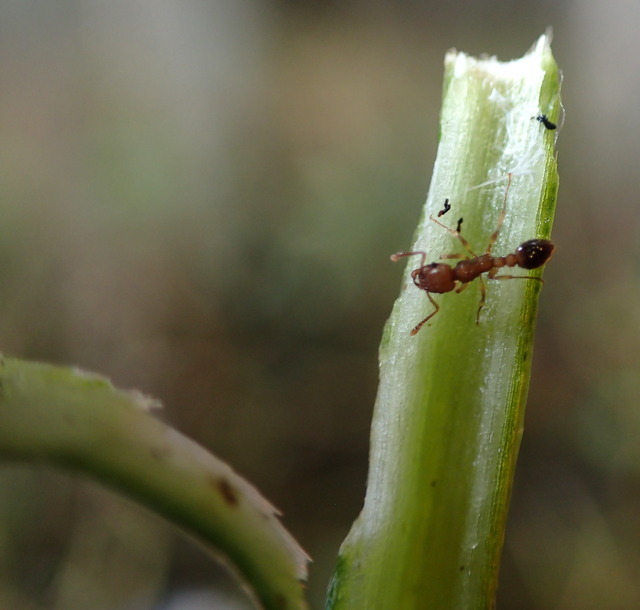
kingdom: Animalia
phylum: Arthropoda
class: Insecta
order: Hymenoptera
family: Formicidae
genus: Tetramorium
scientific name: Tetramorium bicarinatum
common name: Guinea ant
